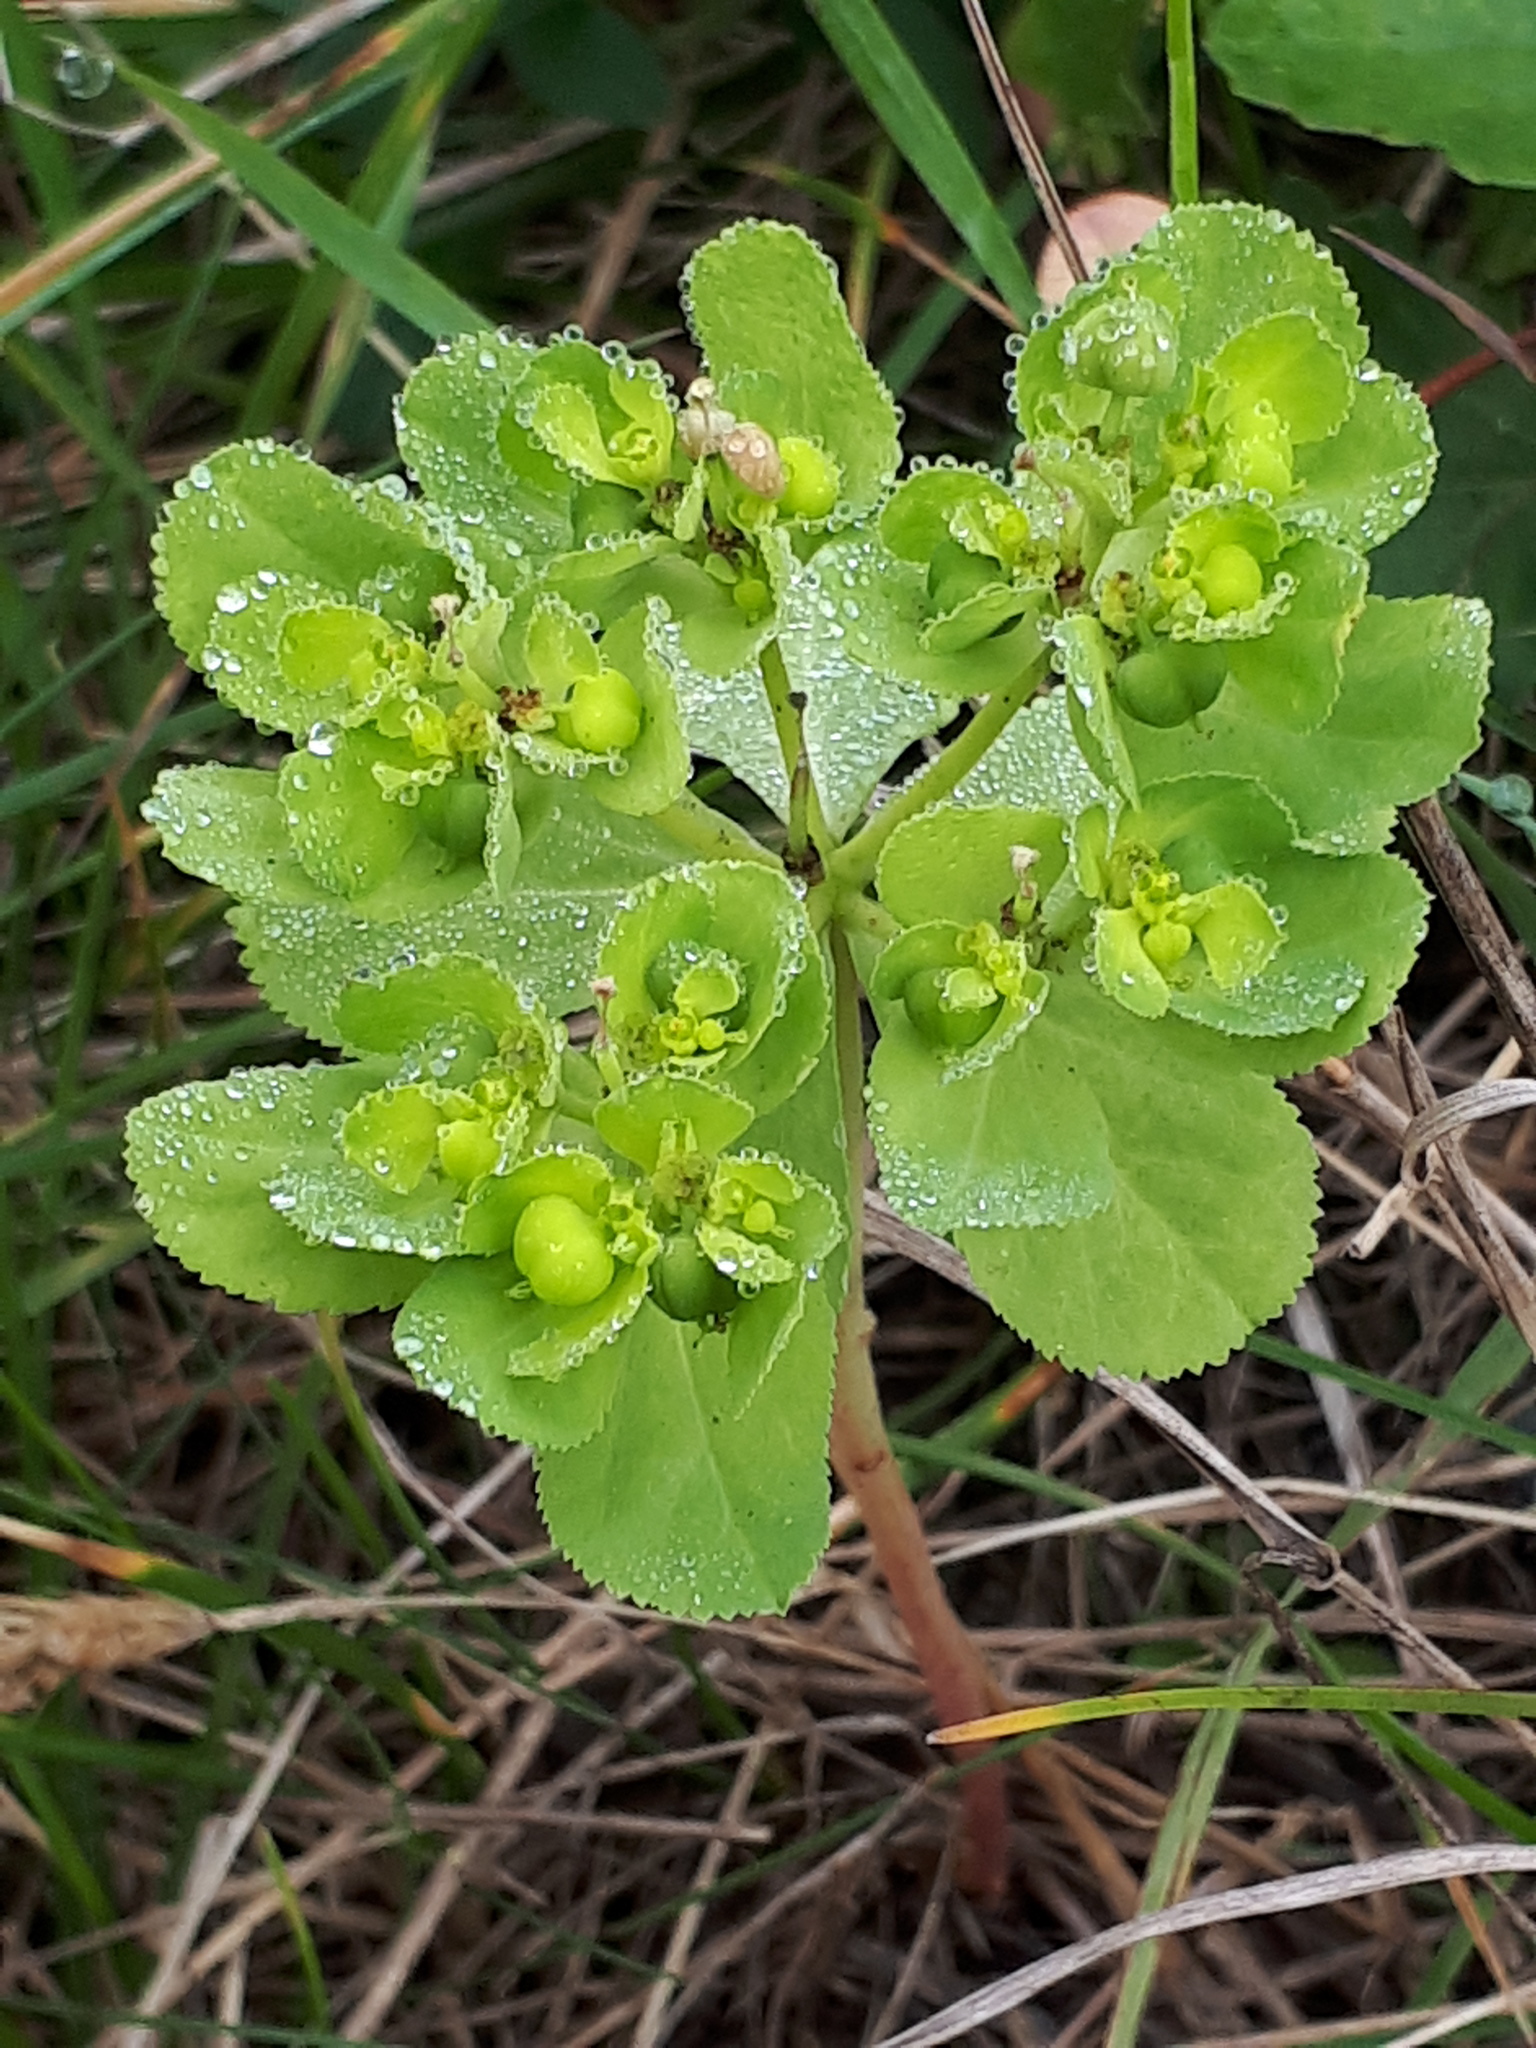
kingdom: Plantae
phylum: Tracheophyta
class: Magnoliopsida
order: Malpighiales
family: Euphorbiaceae
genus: Euphorbia
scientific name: Euphorbia helioscopia
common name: Sun spurge
